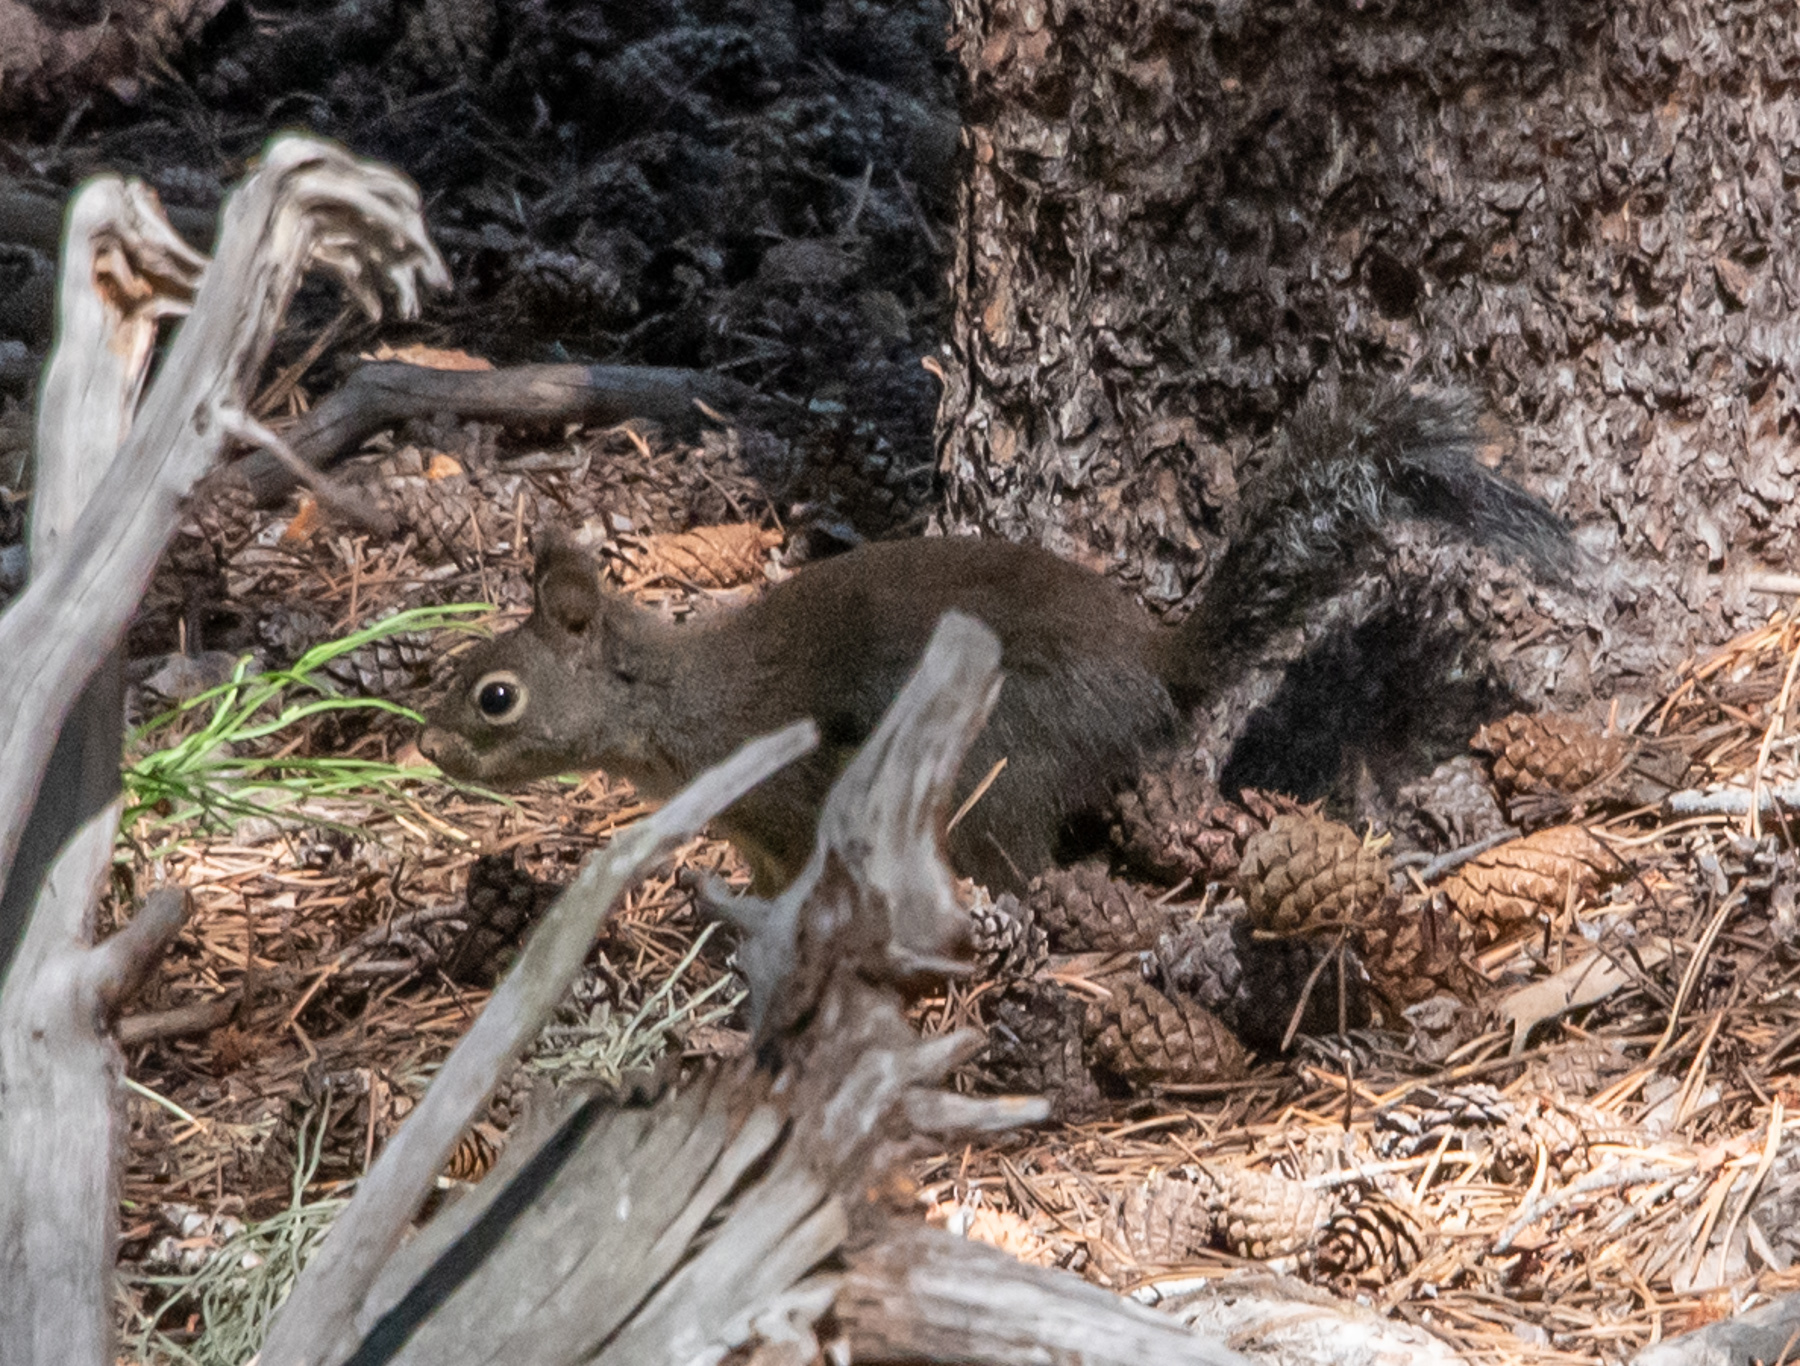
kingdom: Animalia
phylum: Chordata
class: Mammalia
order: Rodentia
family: Sciuridae
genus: Tamiasciurus
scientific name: Tamiasciurus douglasii
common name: Douglas's squirrel
